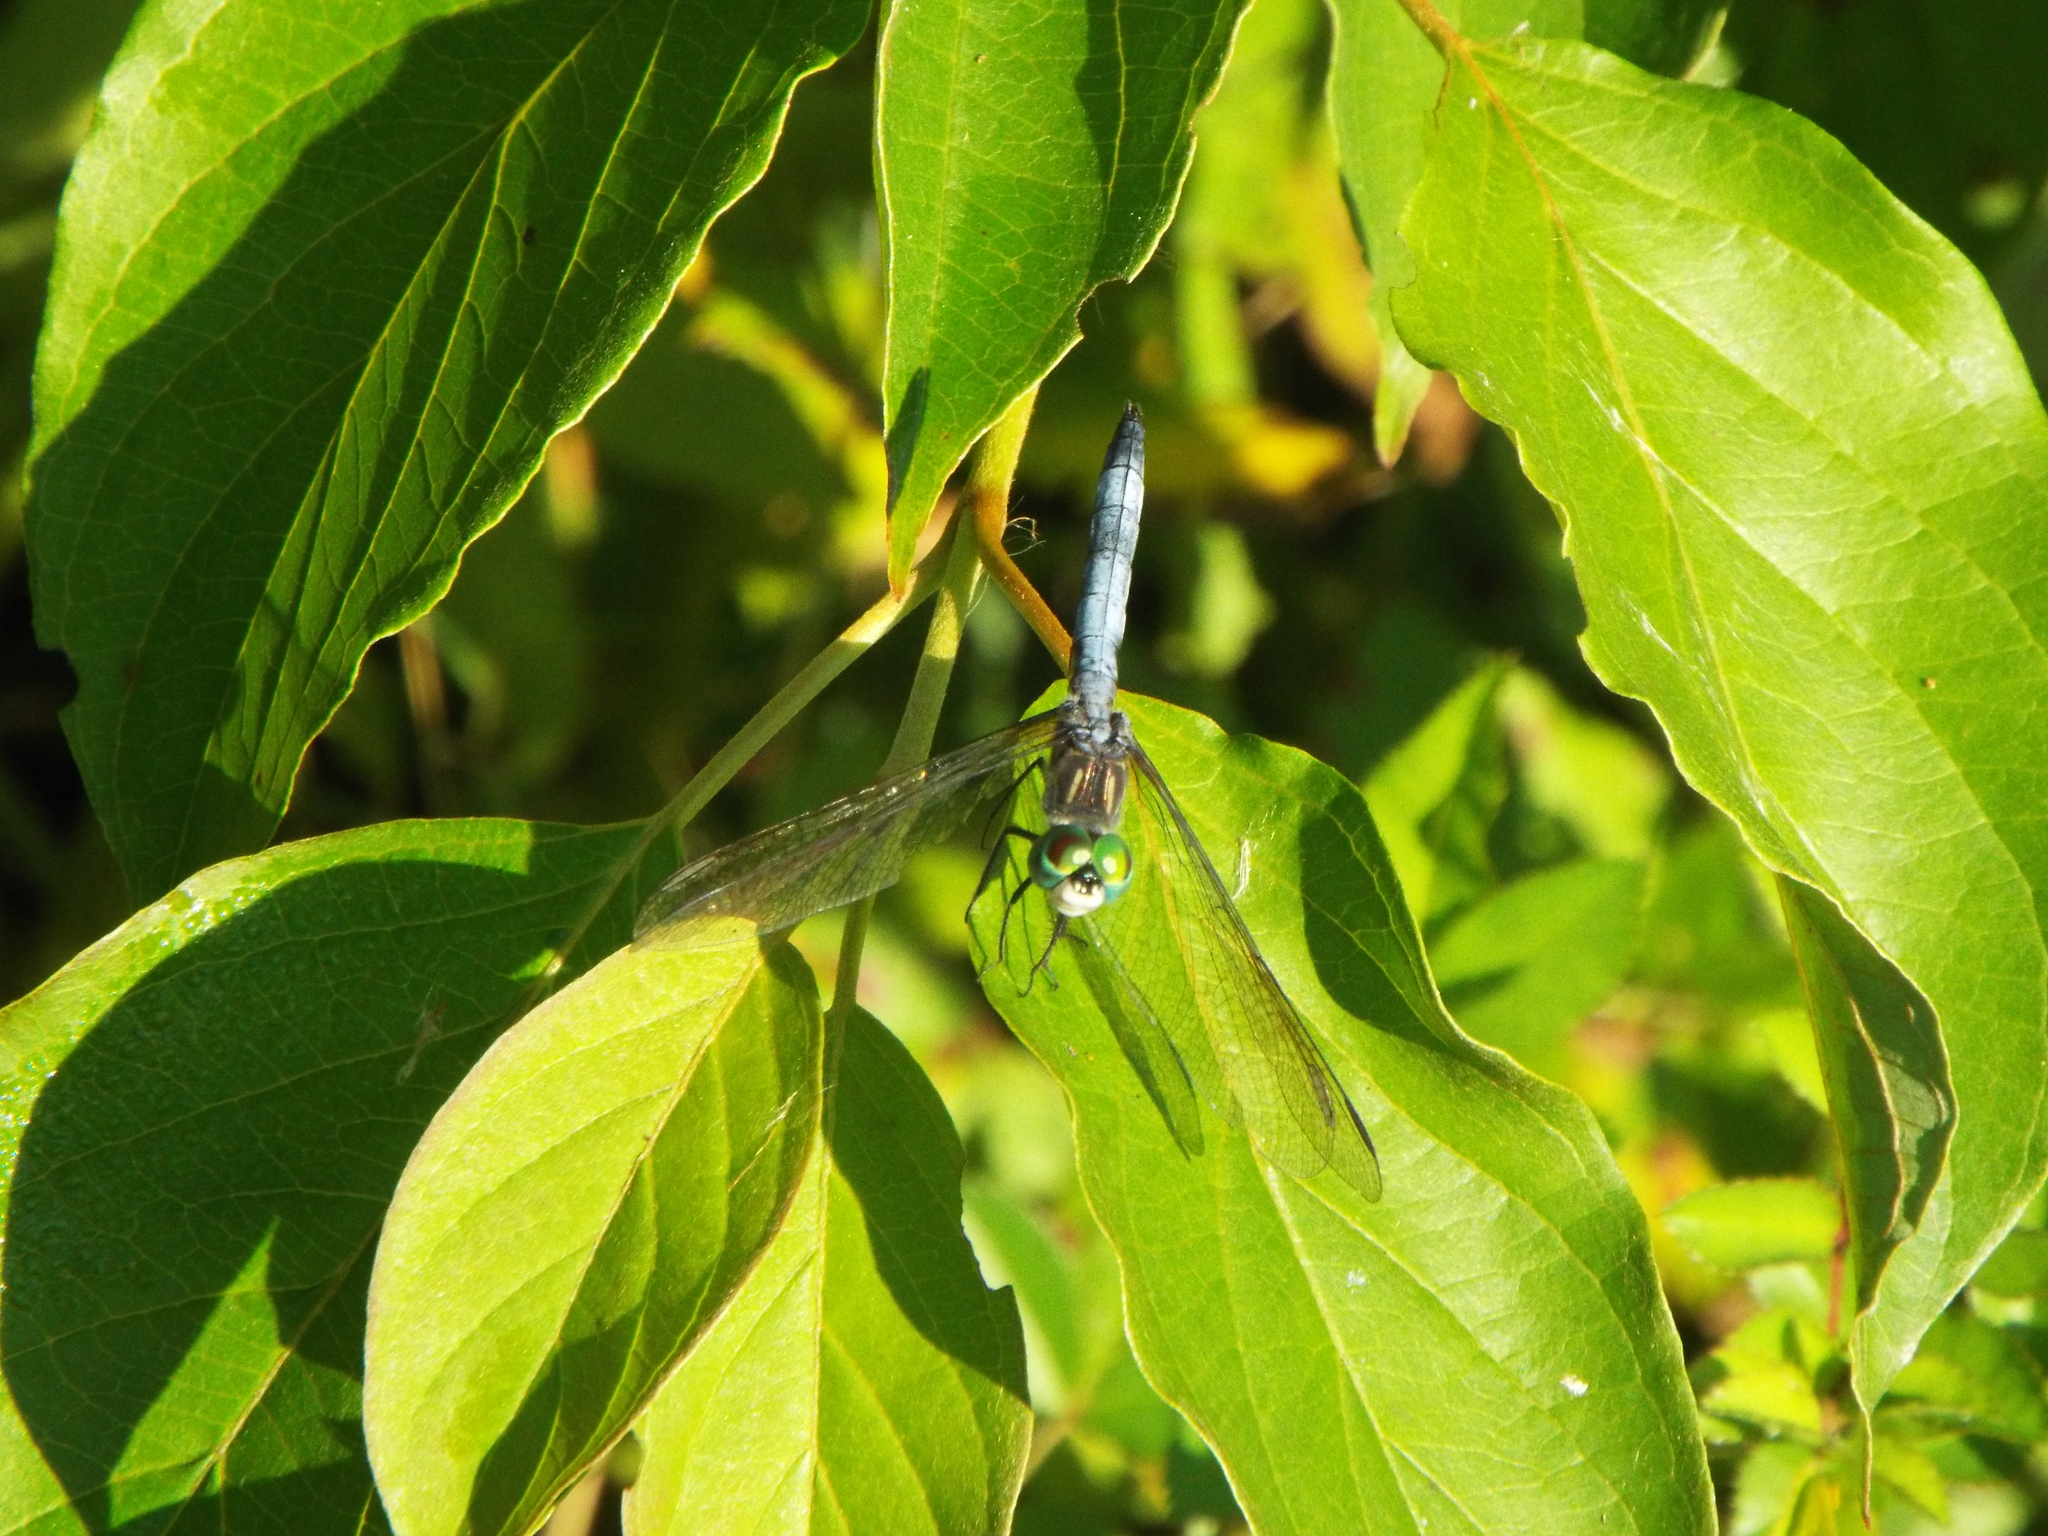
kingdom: Animalia
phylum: Arthropoda
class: Insecta
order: Odonata
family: Libellulidae
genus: Pachydiplax
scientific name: Pachydiplax longipennis
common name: Blue dasher
